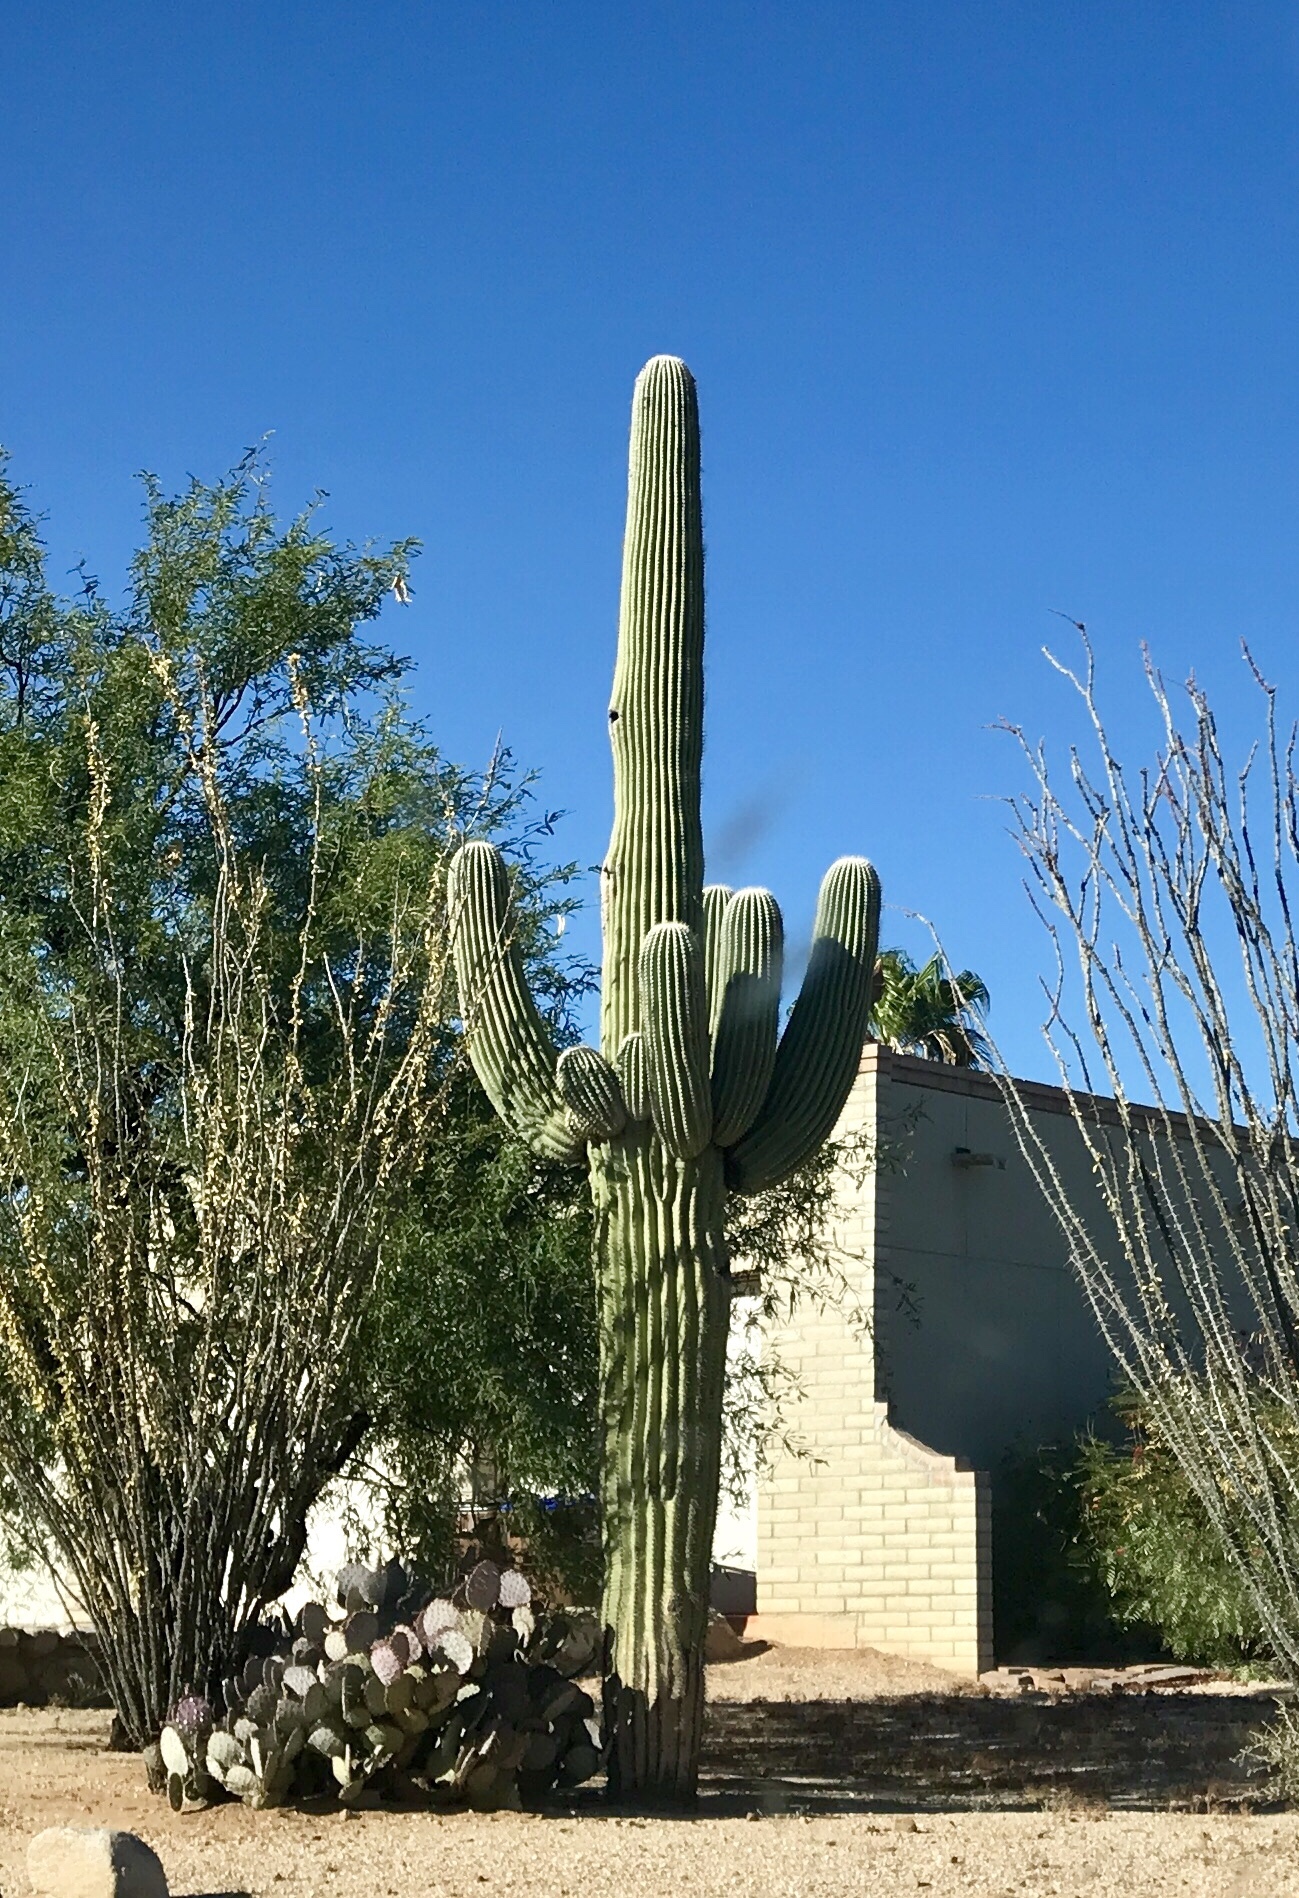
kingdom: Plantae
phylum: Tracheophyta
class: Magnoliopsida
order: Caryophyllales
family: Cactaceae
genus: Carnegiea
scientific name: Carnegiea gigantea
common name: Saguaro
